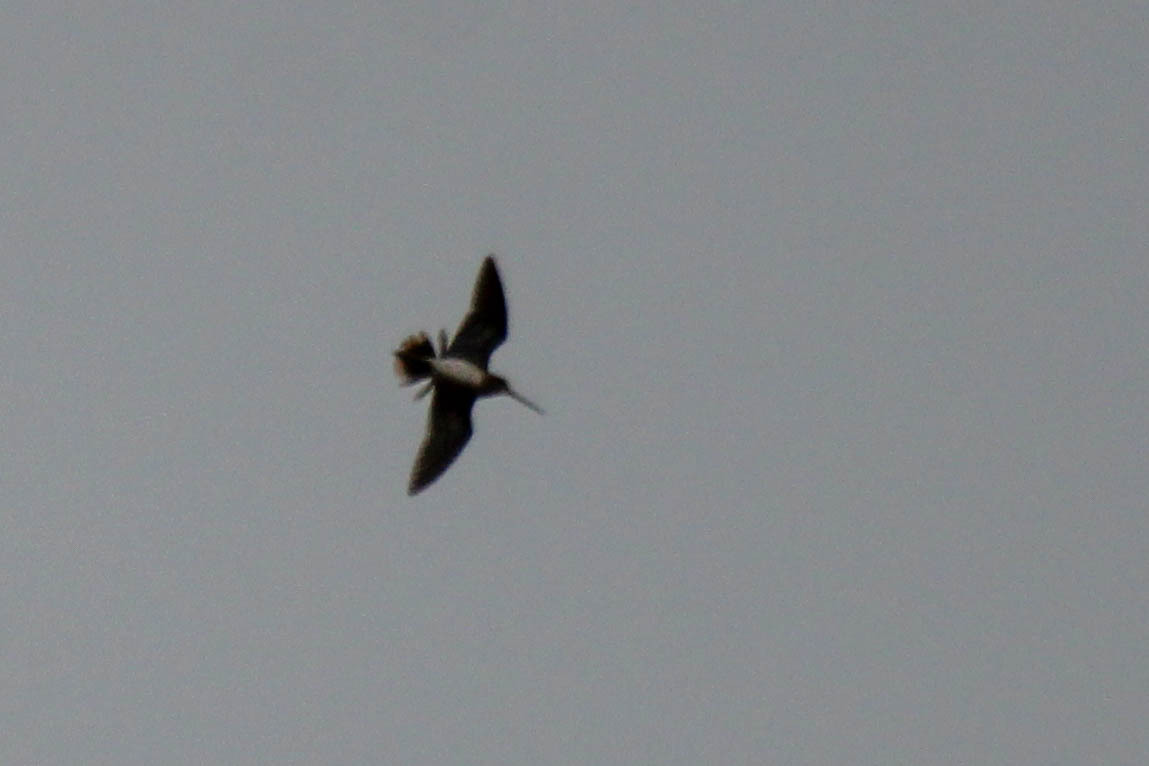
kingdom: Animalia
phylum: Chordata
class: Aves
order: Charadriiformes
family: Scolopacidae
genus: Gallinago
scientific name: Gallinago gallinago
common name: Common snipe
